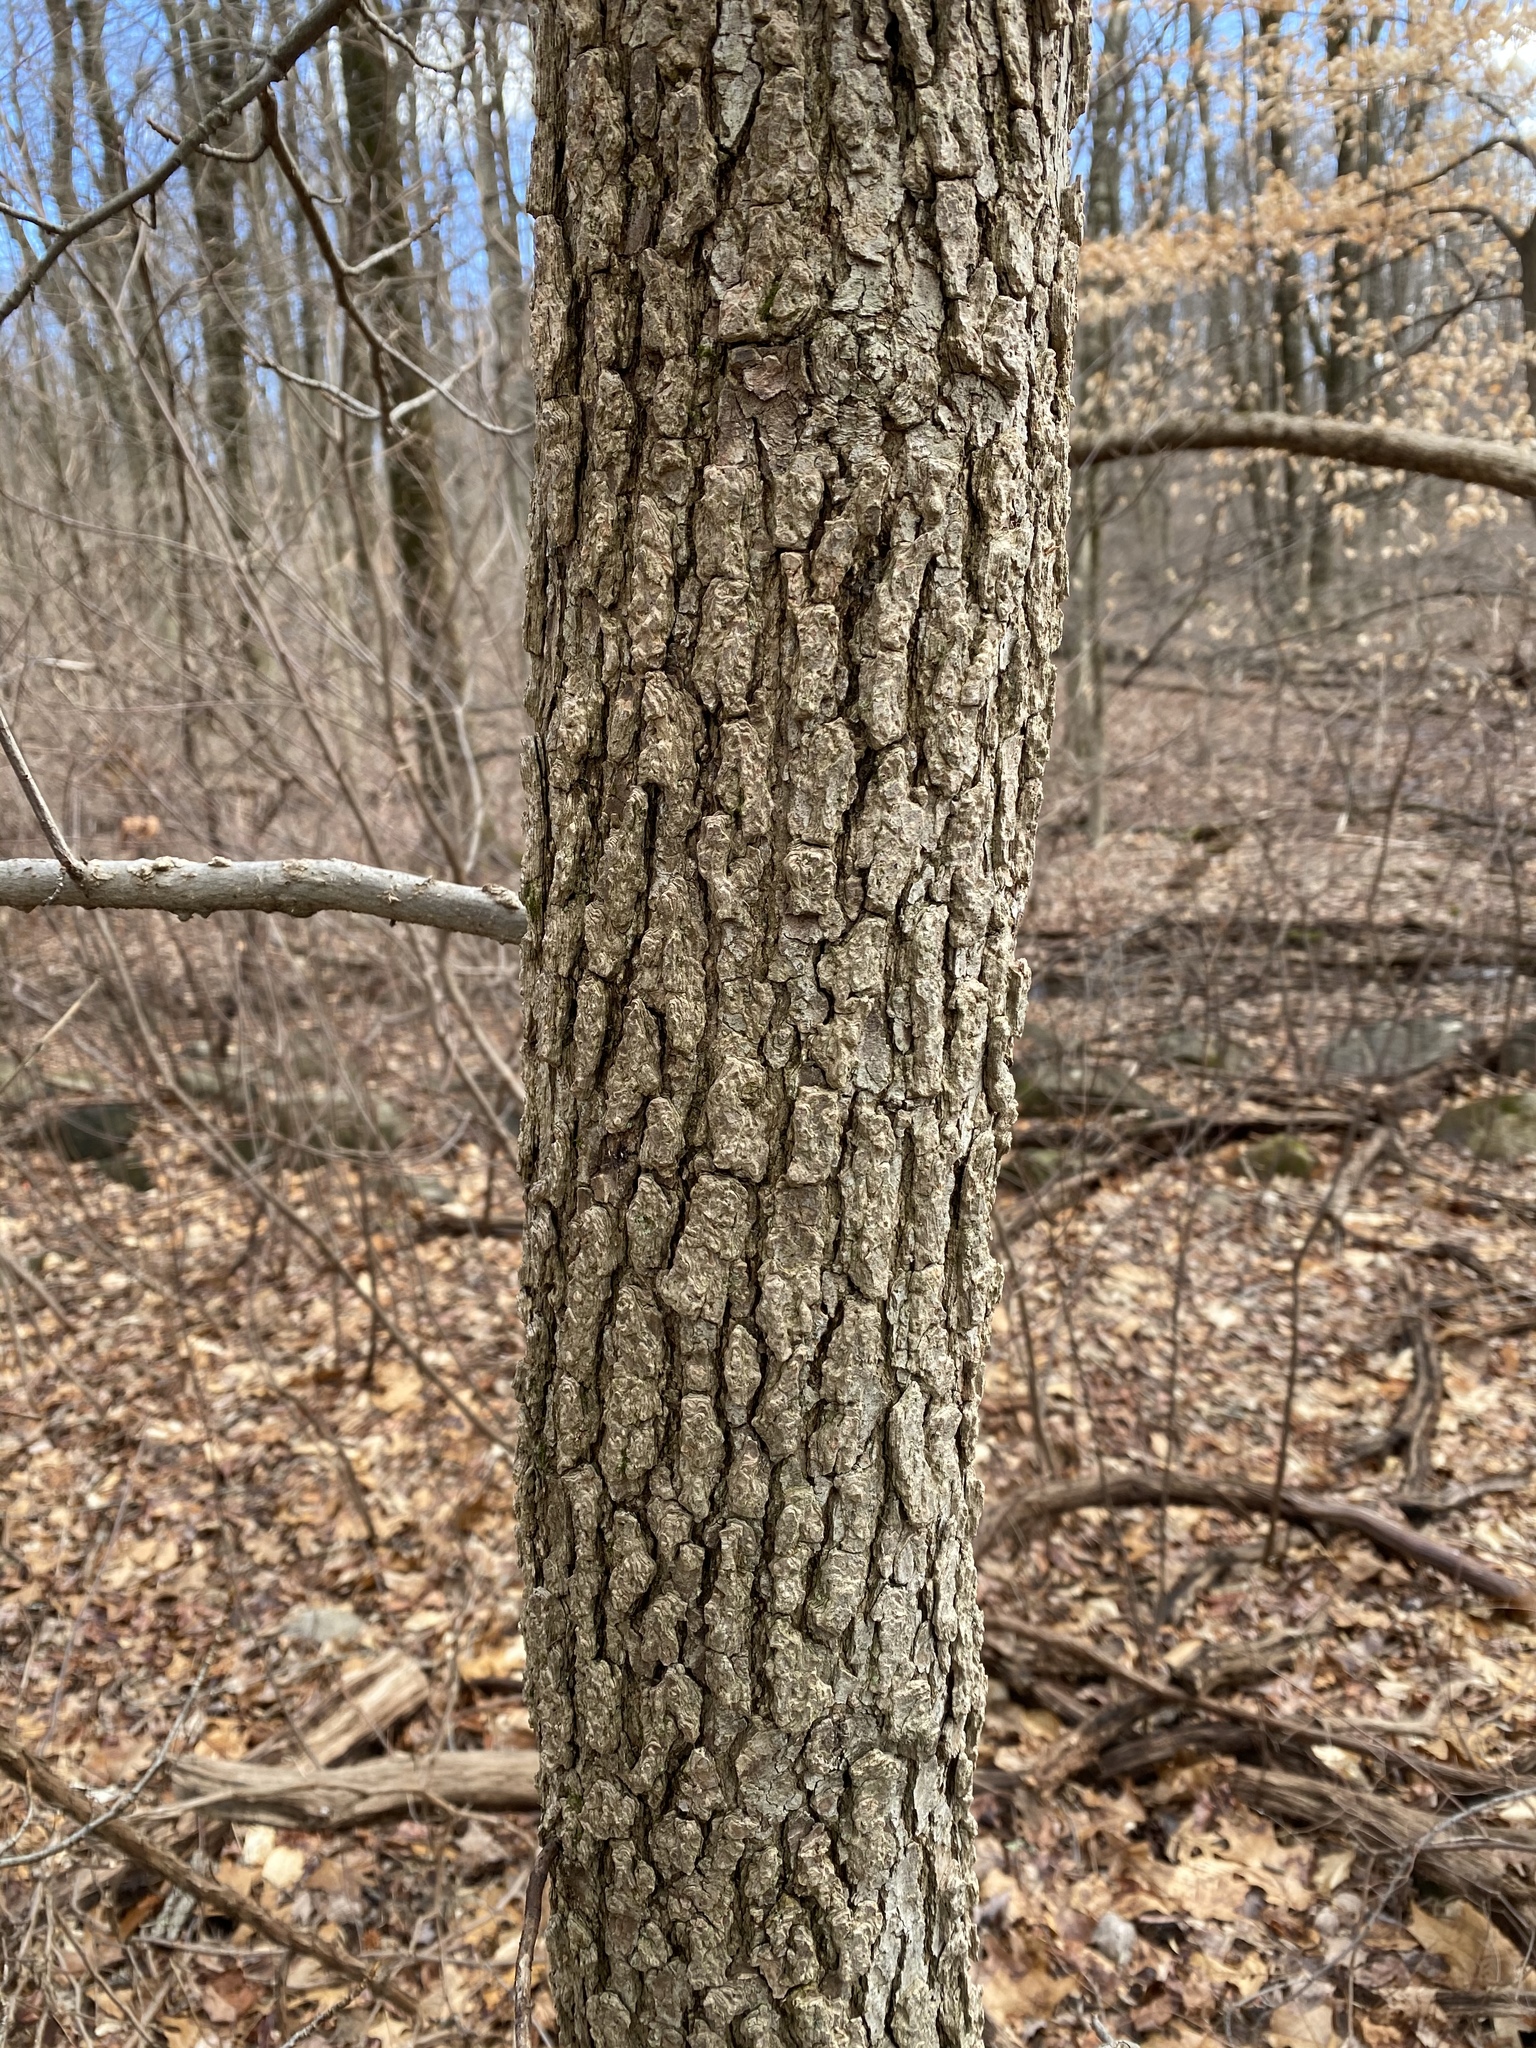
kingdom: Plantae
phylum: Tracheophyta
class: Magnoliopsida
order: Saxifragales
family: Altingiaceae
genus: Liquidambar
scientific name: Liquidambar styraciflua
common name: Sweet gum
